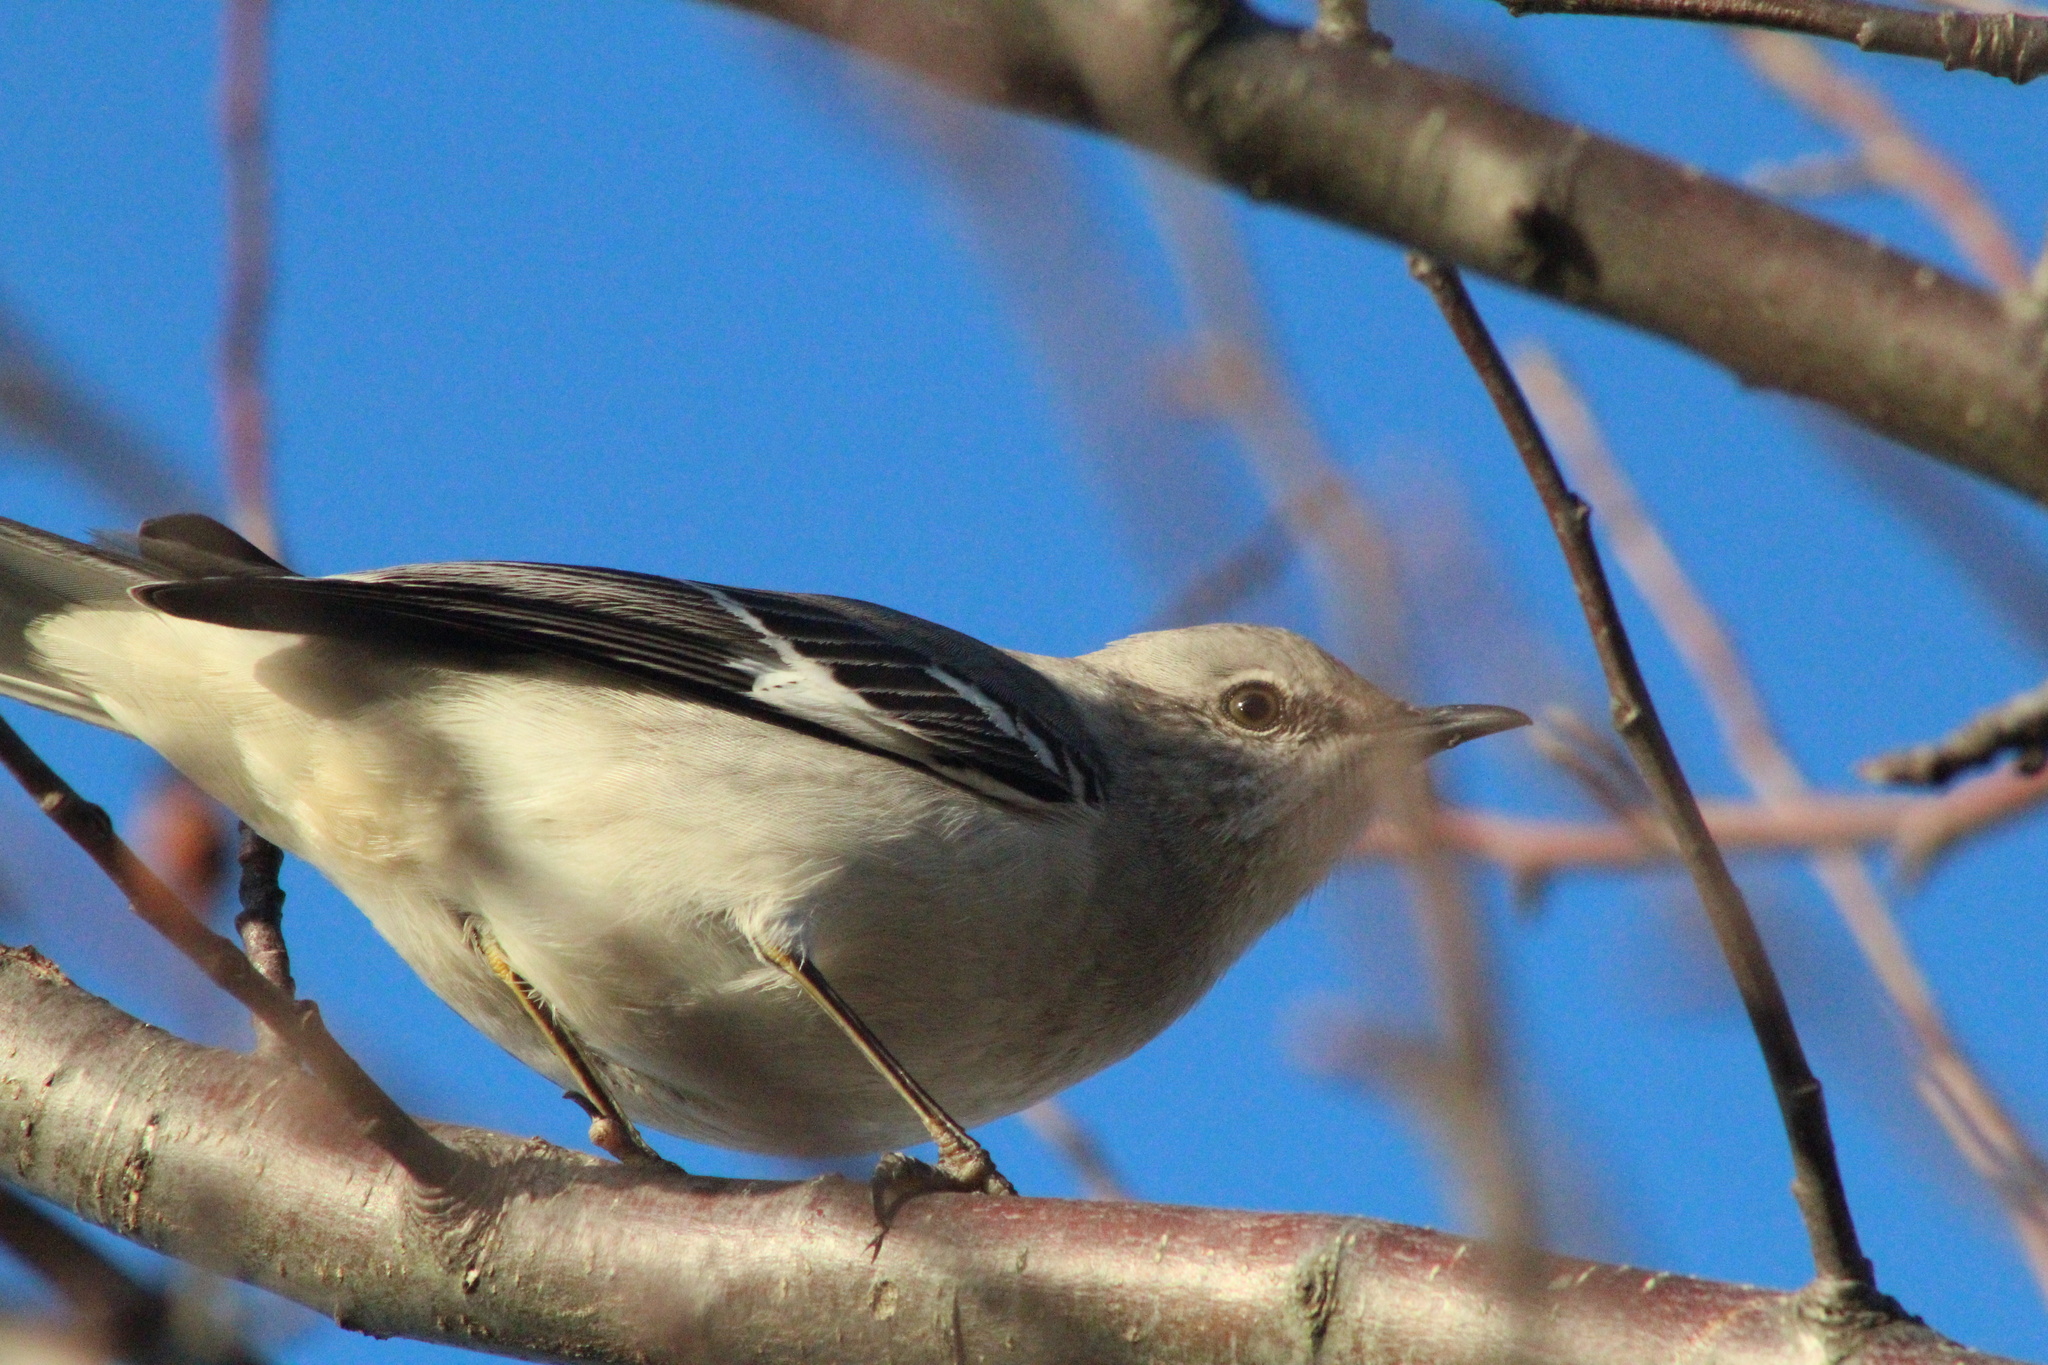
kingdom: Animalia
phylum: Chordata
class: Aves
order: Passeriformes
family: Mimidae
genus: Mimus
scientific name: Mimus polyglottos
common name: Northern mockingbird
